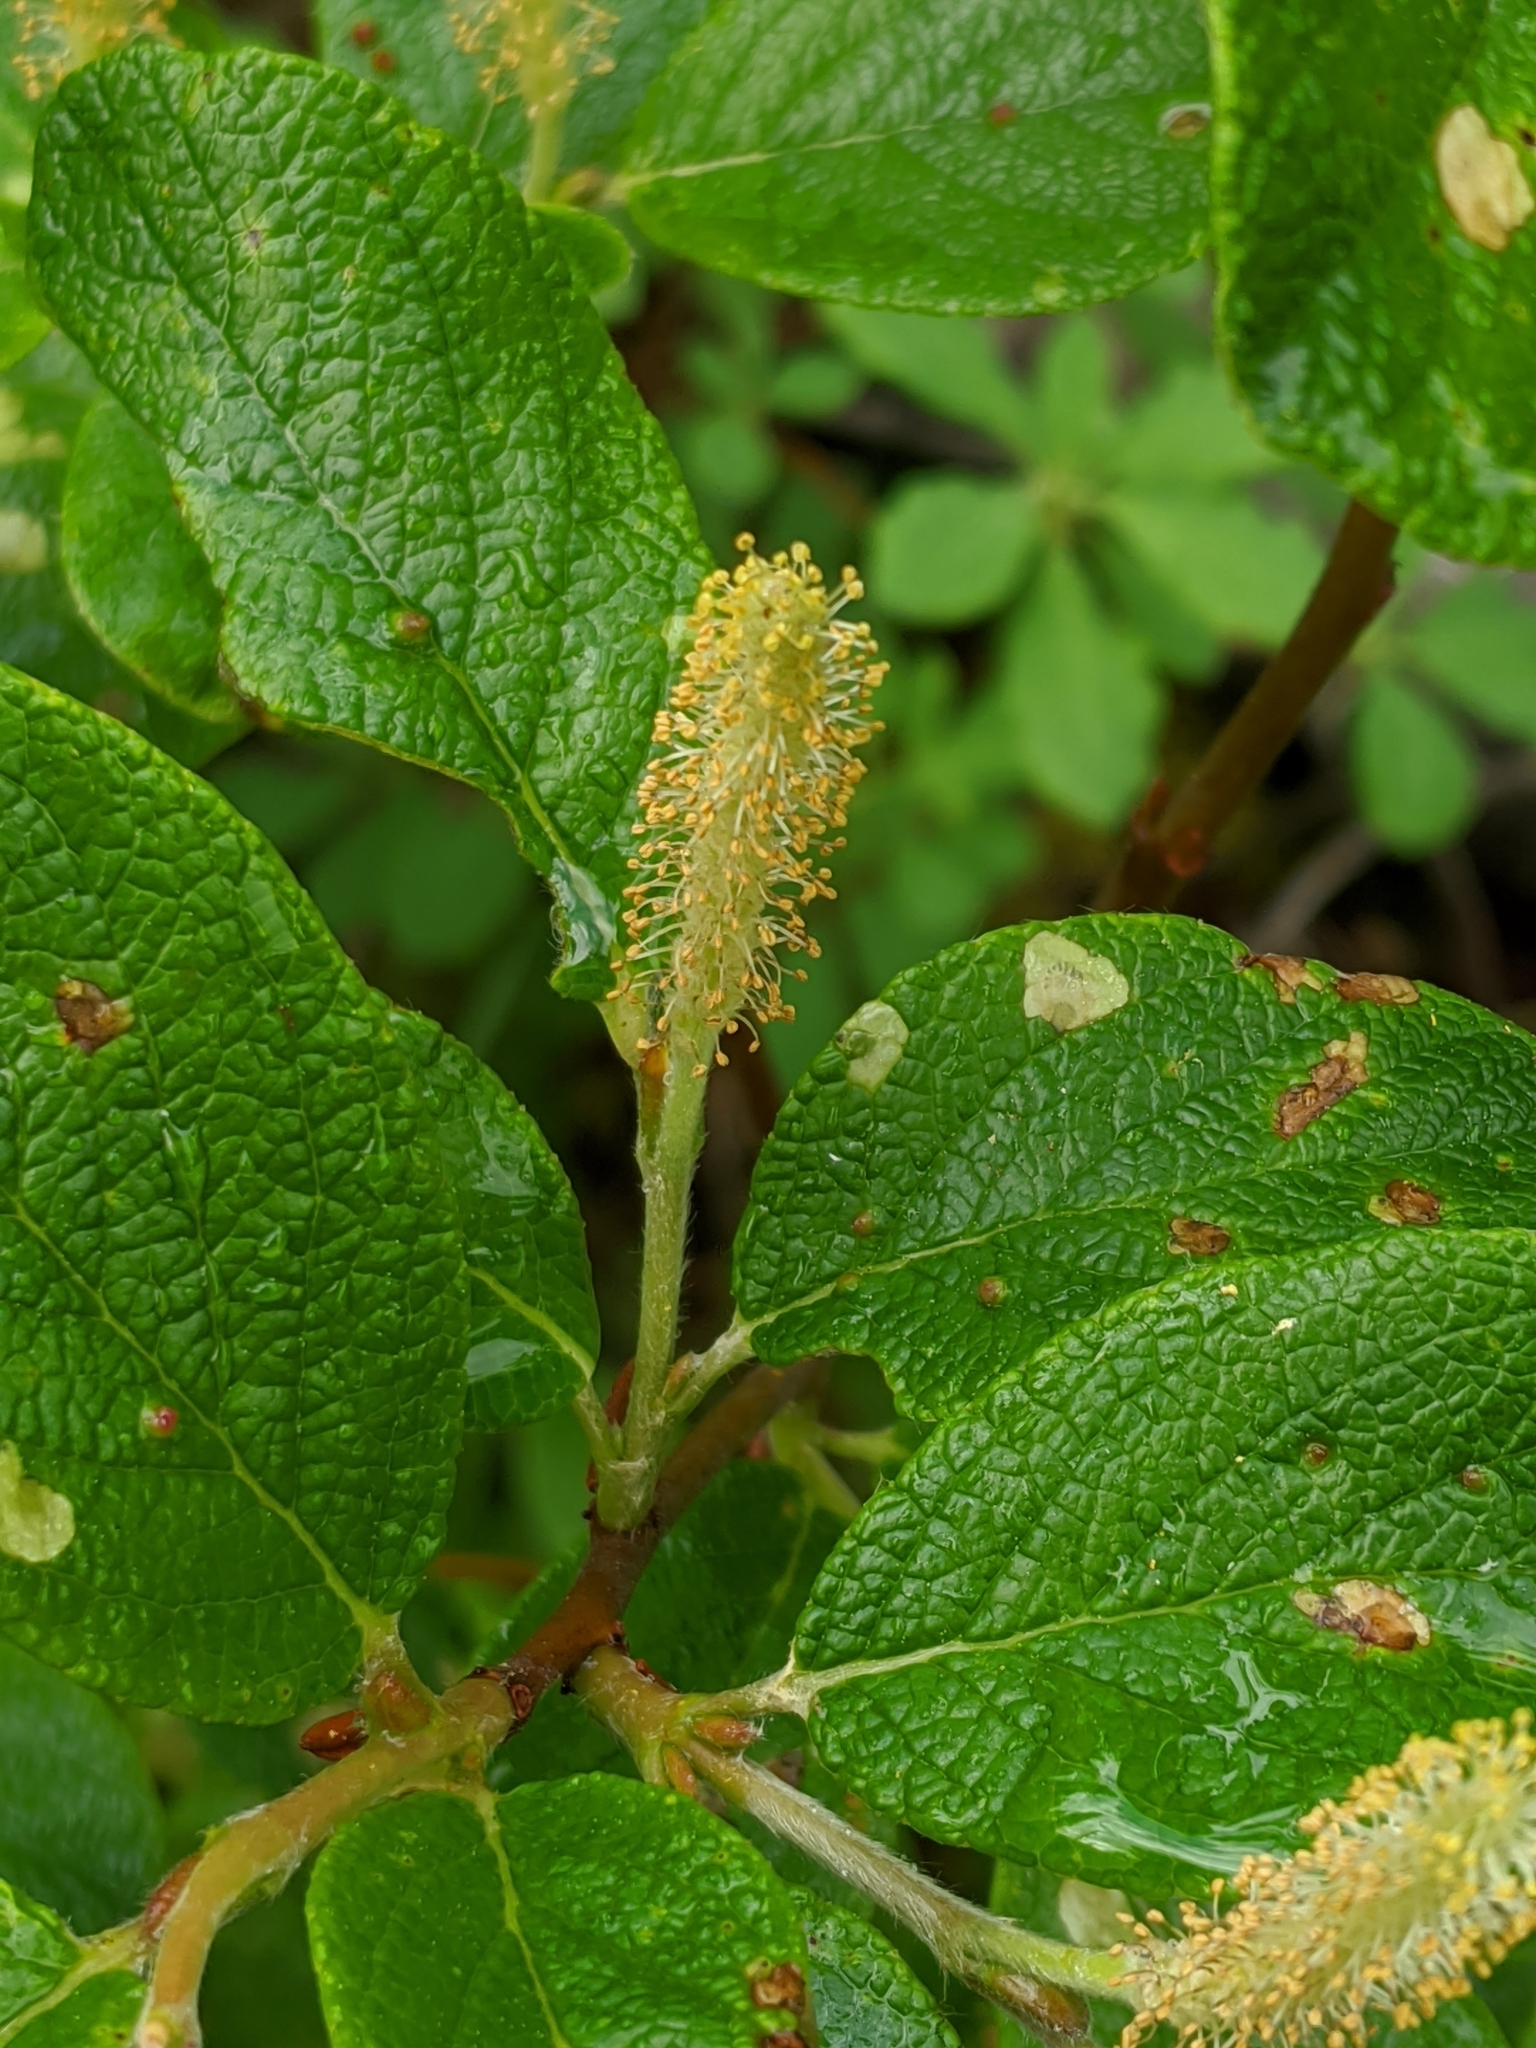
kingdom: Plantae
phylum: Tracheophyta
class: Magnoliopsida
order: Malpighiales
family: Salicaceae
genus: Salix
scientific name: Salix vestita
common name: Hairy willow
